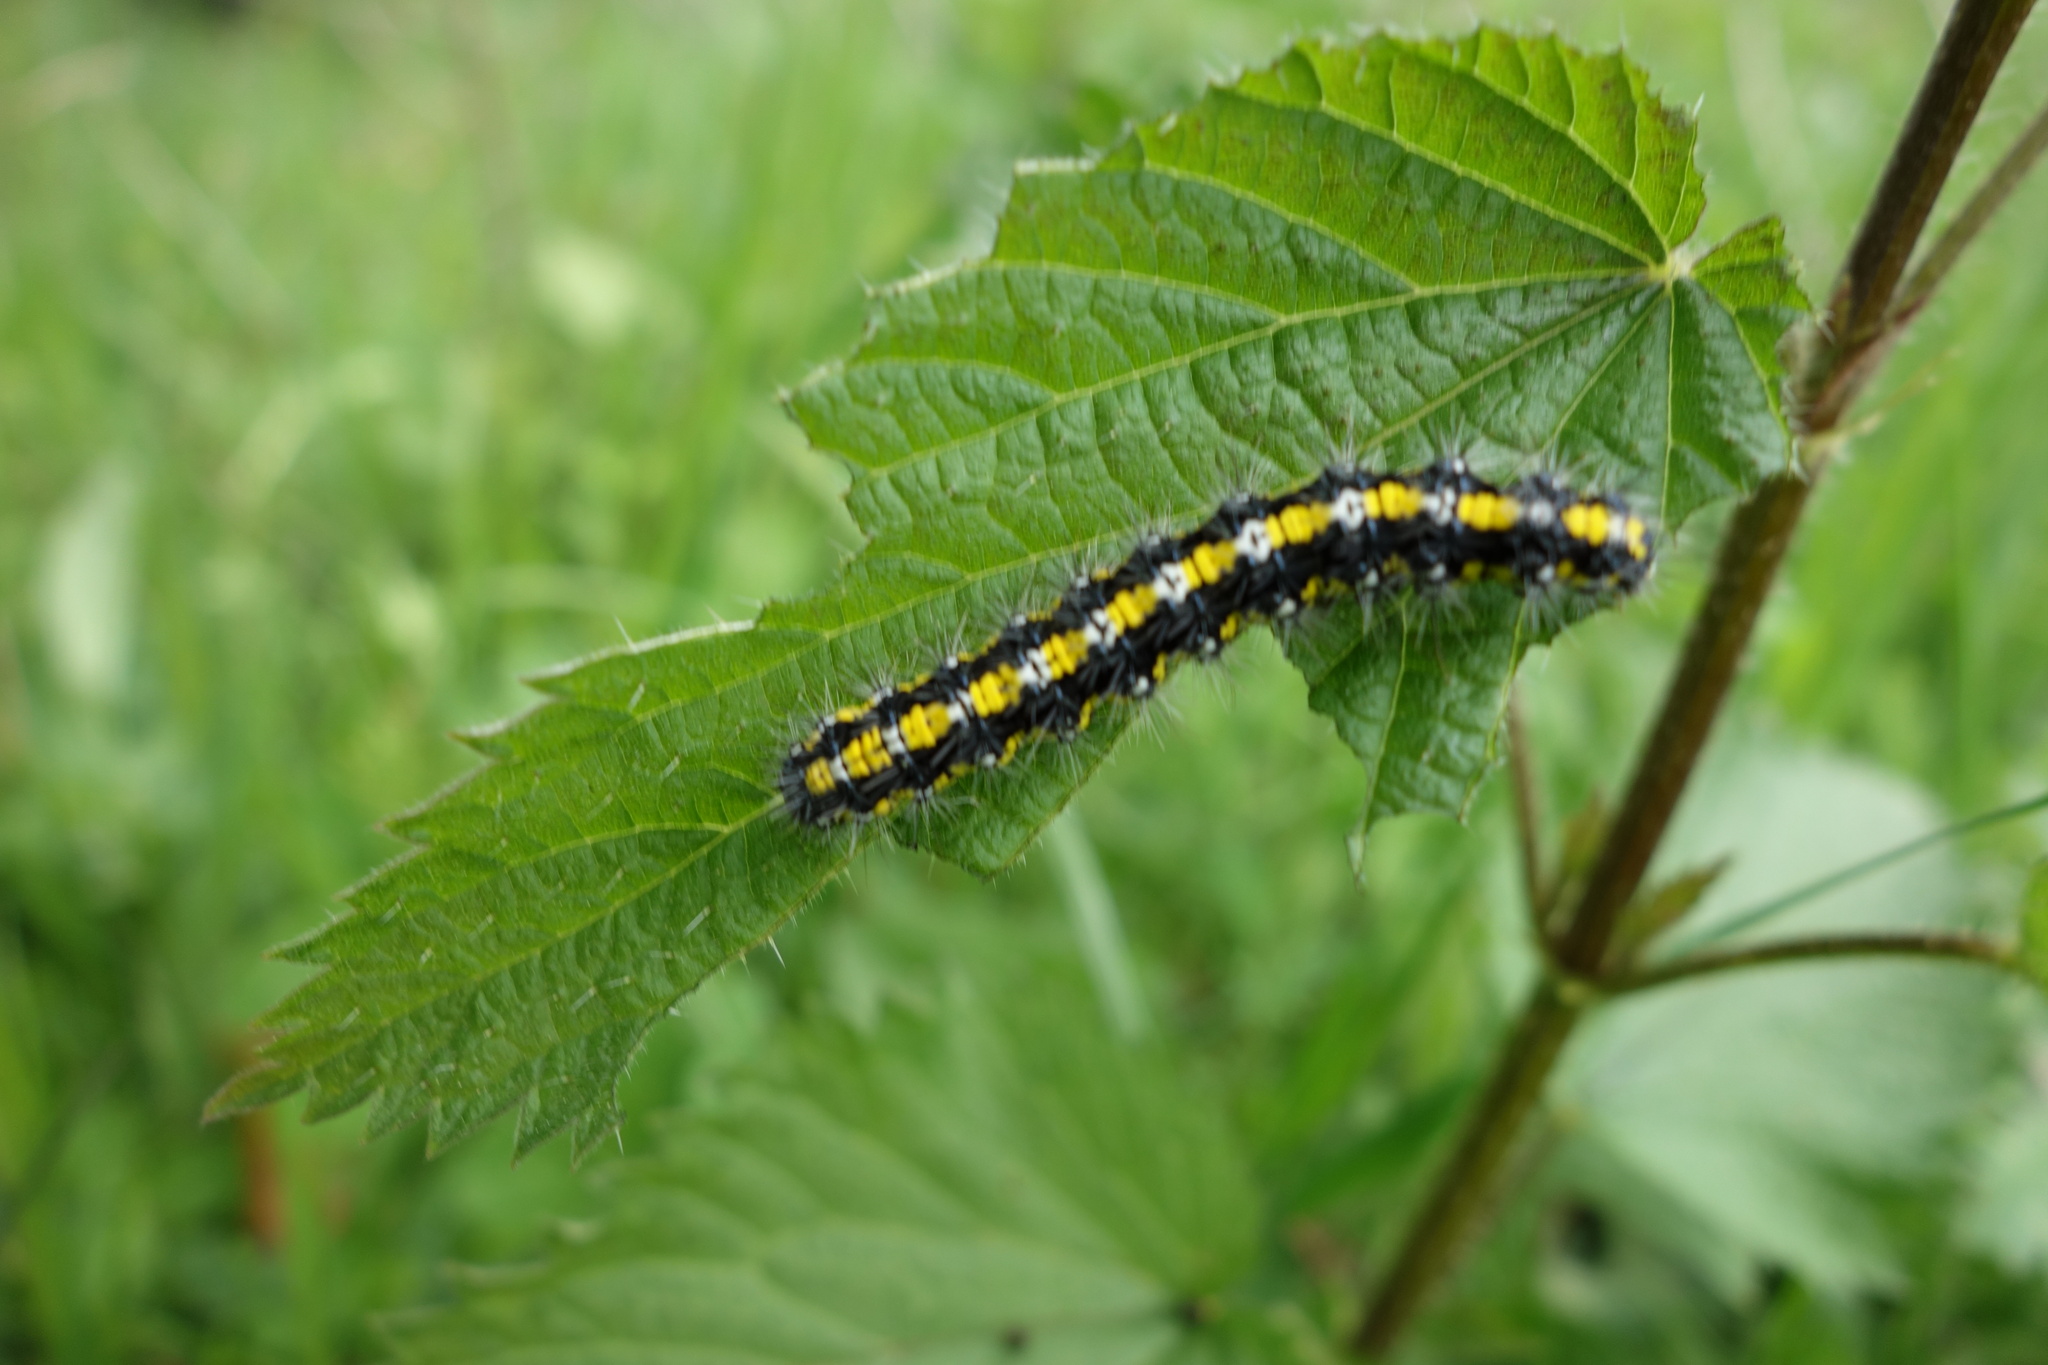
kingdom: Animalia
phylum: Arthropoda
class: Insecta
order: Lepidoptera
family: Erebidae
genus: Callimorpha
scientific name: Callimorpha dominula
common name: Scarlet tiger
